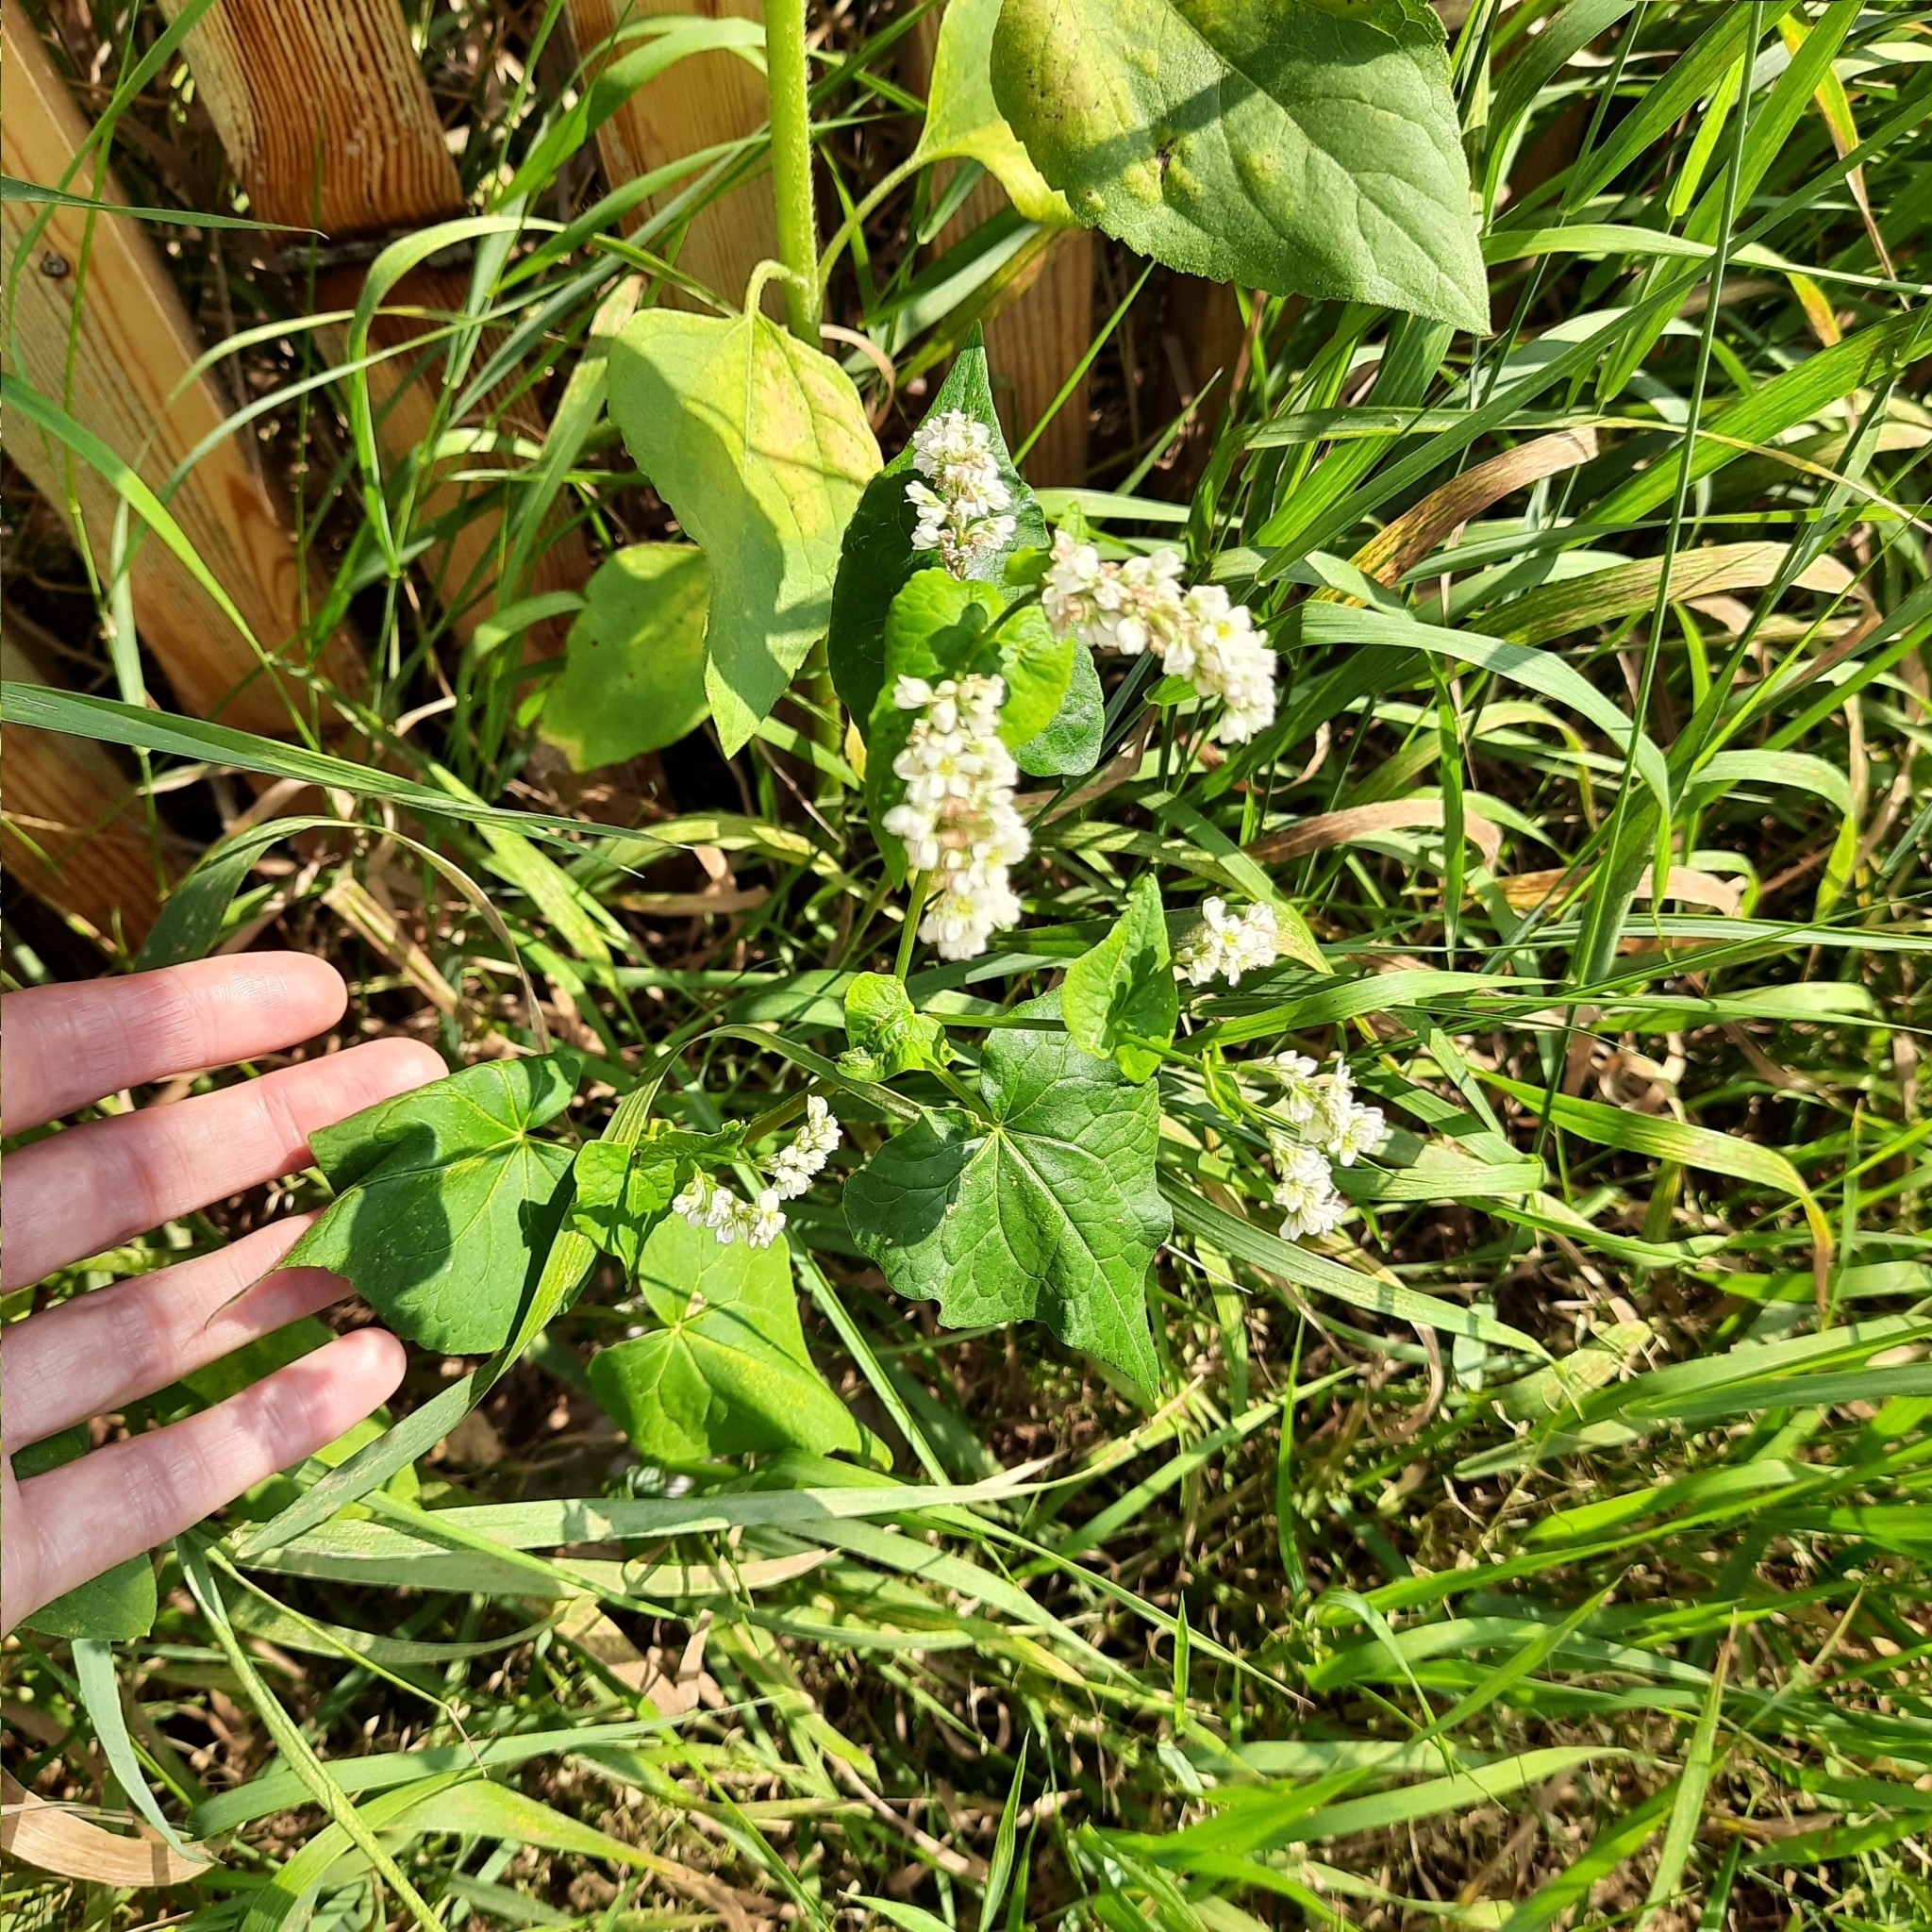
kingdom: Plantae
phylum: Tracheophyta
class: Magnoliopsida
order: Caryophyllales
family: Polygonaceae
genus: Fagopyrum
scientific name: Fagopyrum esculentum
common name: Buckwheat
